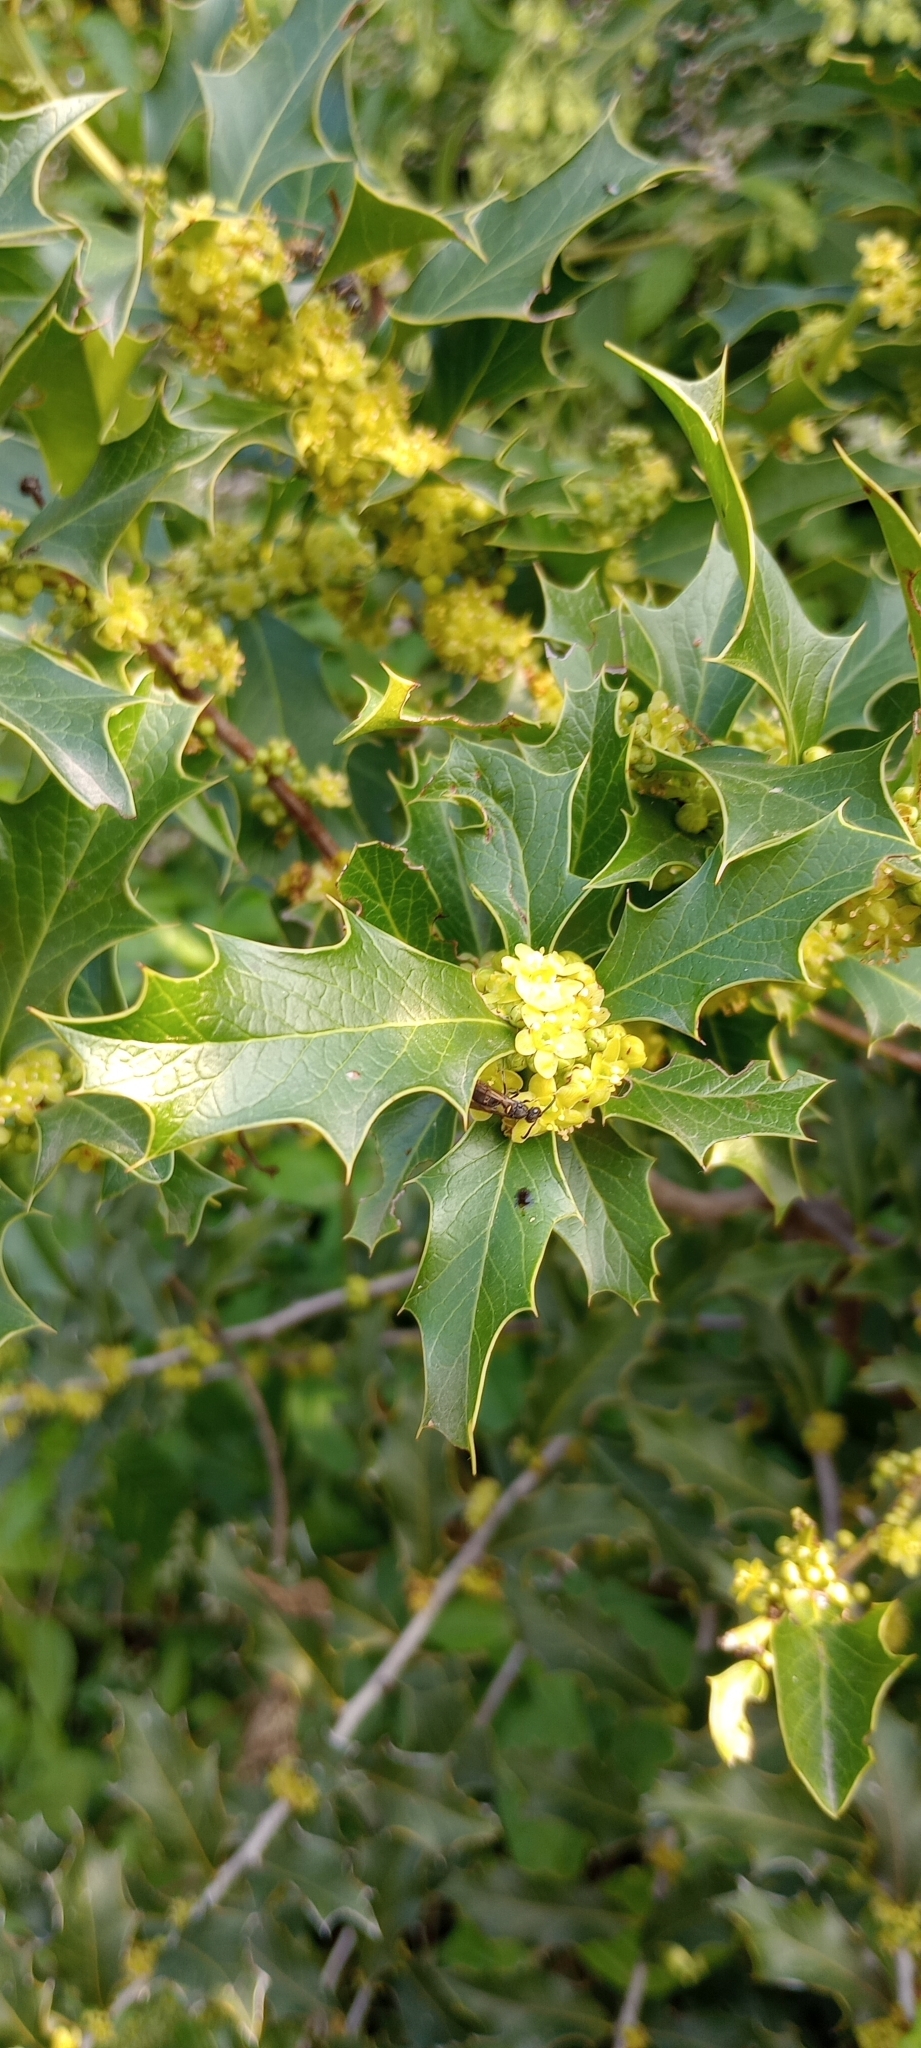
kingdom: Plantae
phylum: Tracheophyta
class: Magnoliopsida
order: Celastrales
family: Celastraceae
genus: Monteverdia
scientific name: Monteverdia
